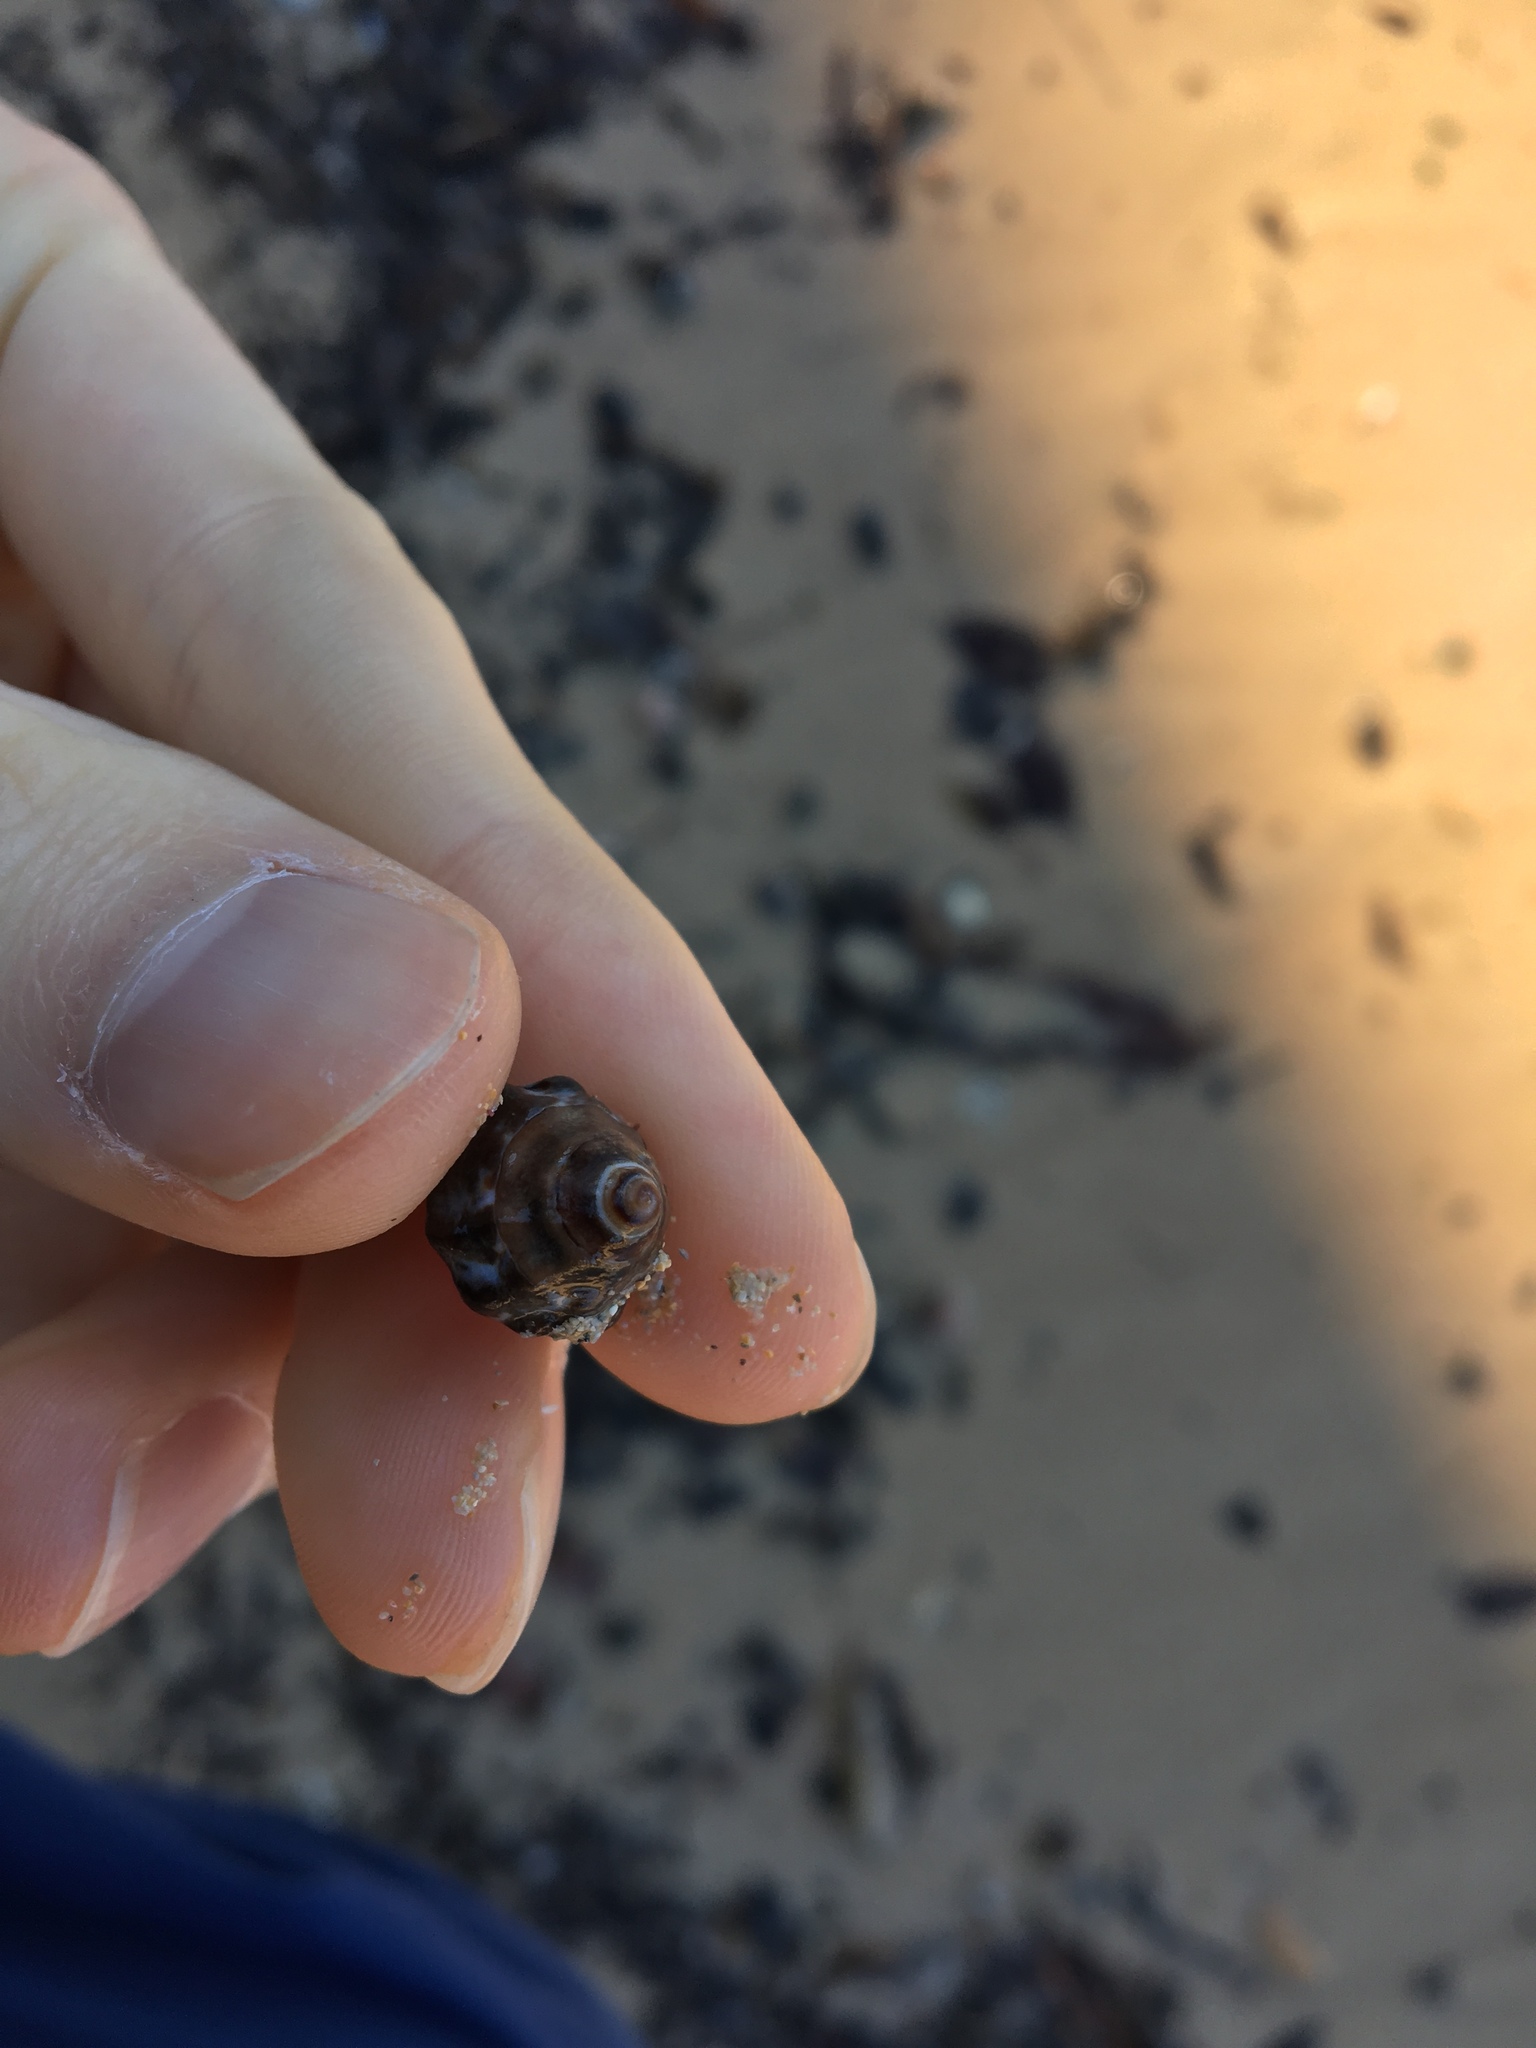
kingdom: Animalia
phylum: Mollusca
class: Gastropoda
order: Littorinimorpha
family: Littorinidae
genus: Bembicium
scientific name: Bembicium auratum
